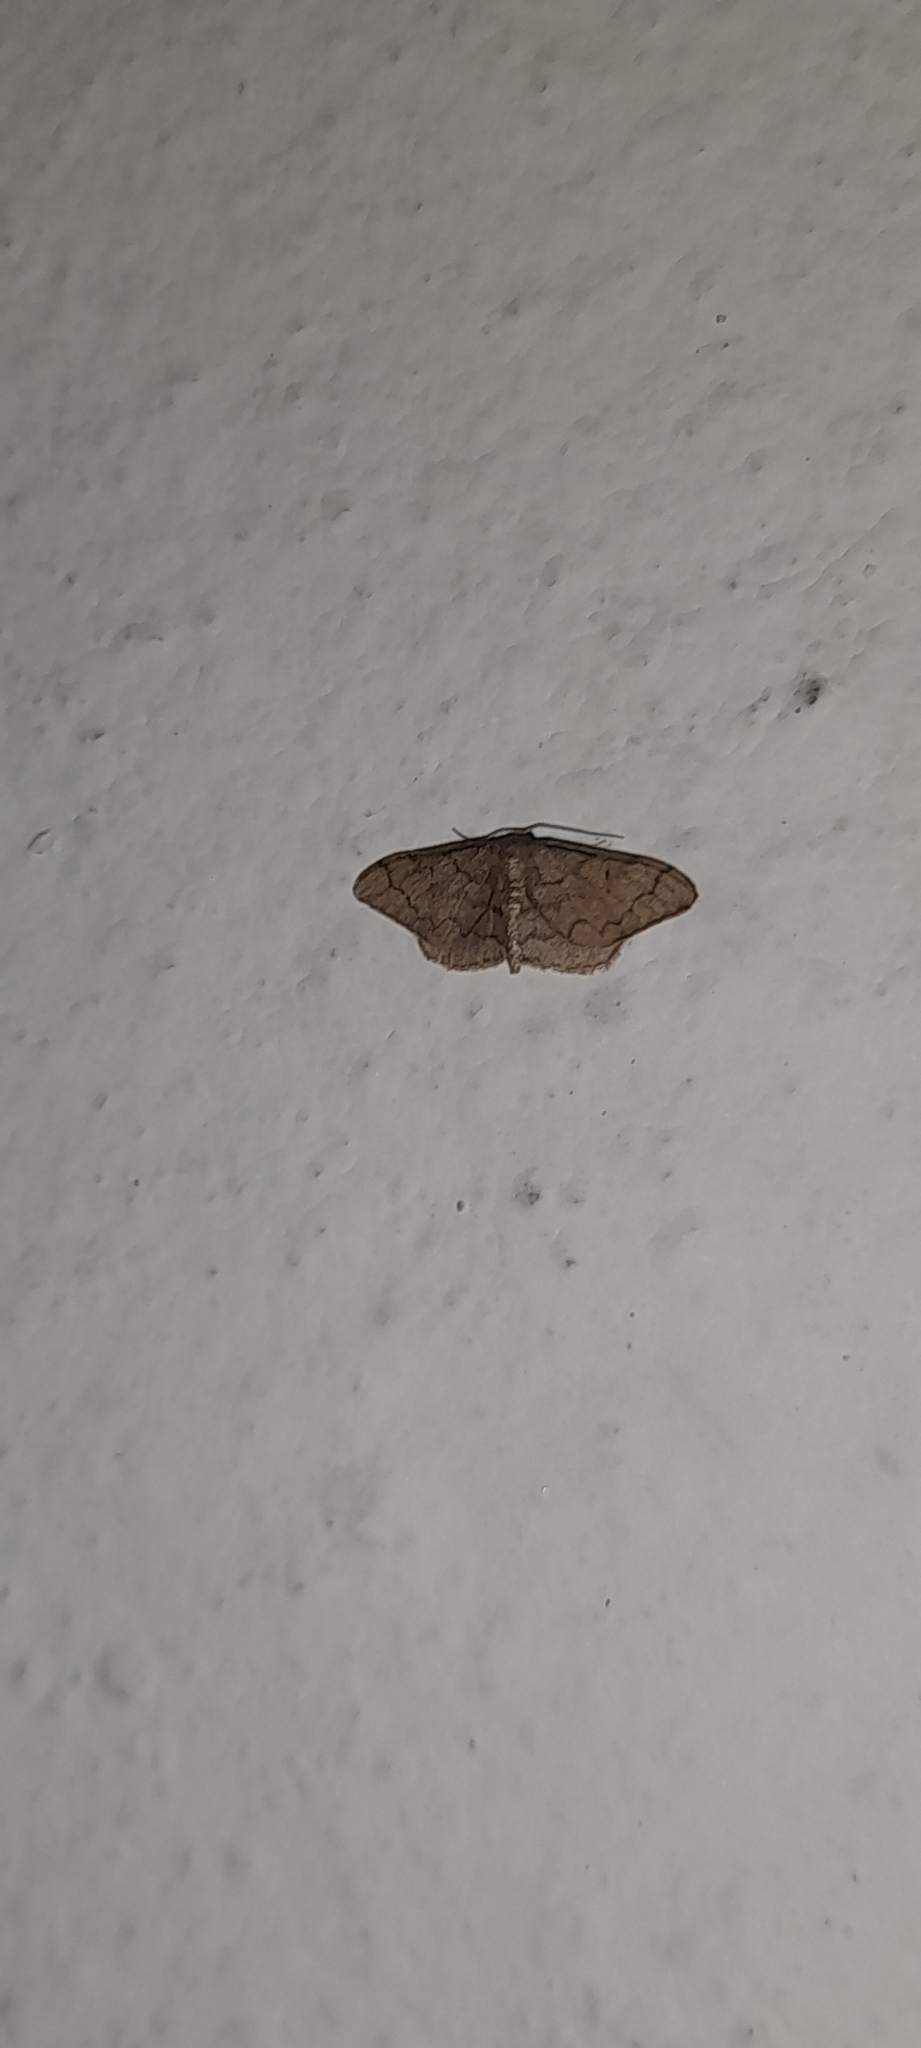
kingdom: Animalia
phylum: Arthropoda
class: Insecta
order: Lepidoptera
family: Geometridae
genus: Idaea
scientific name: Idaea amplipennis
